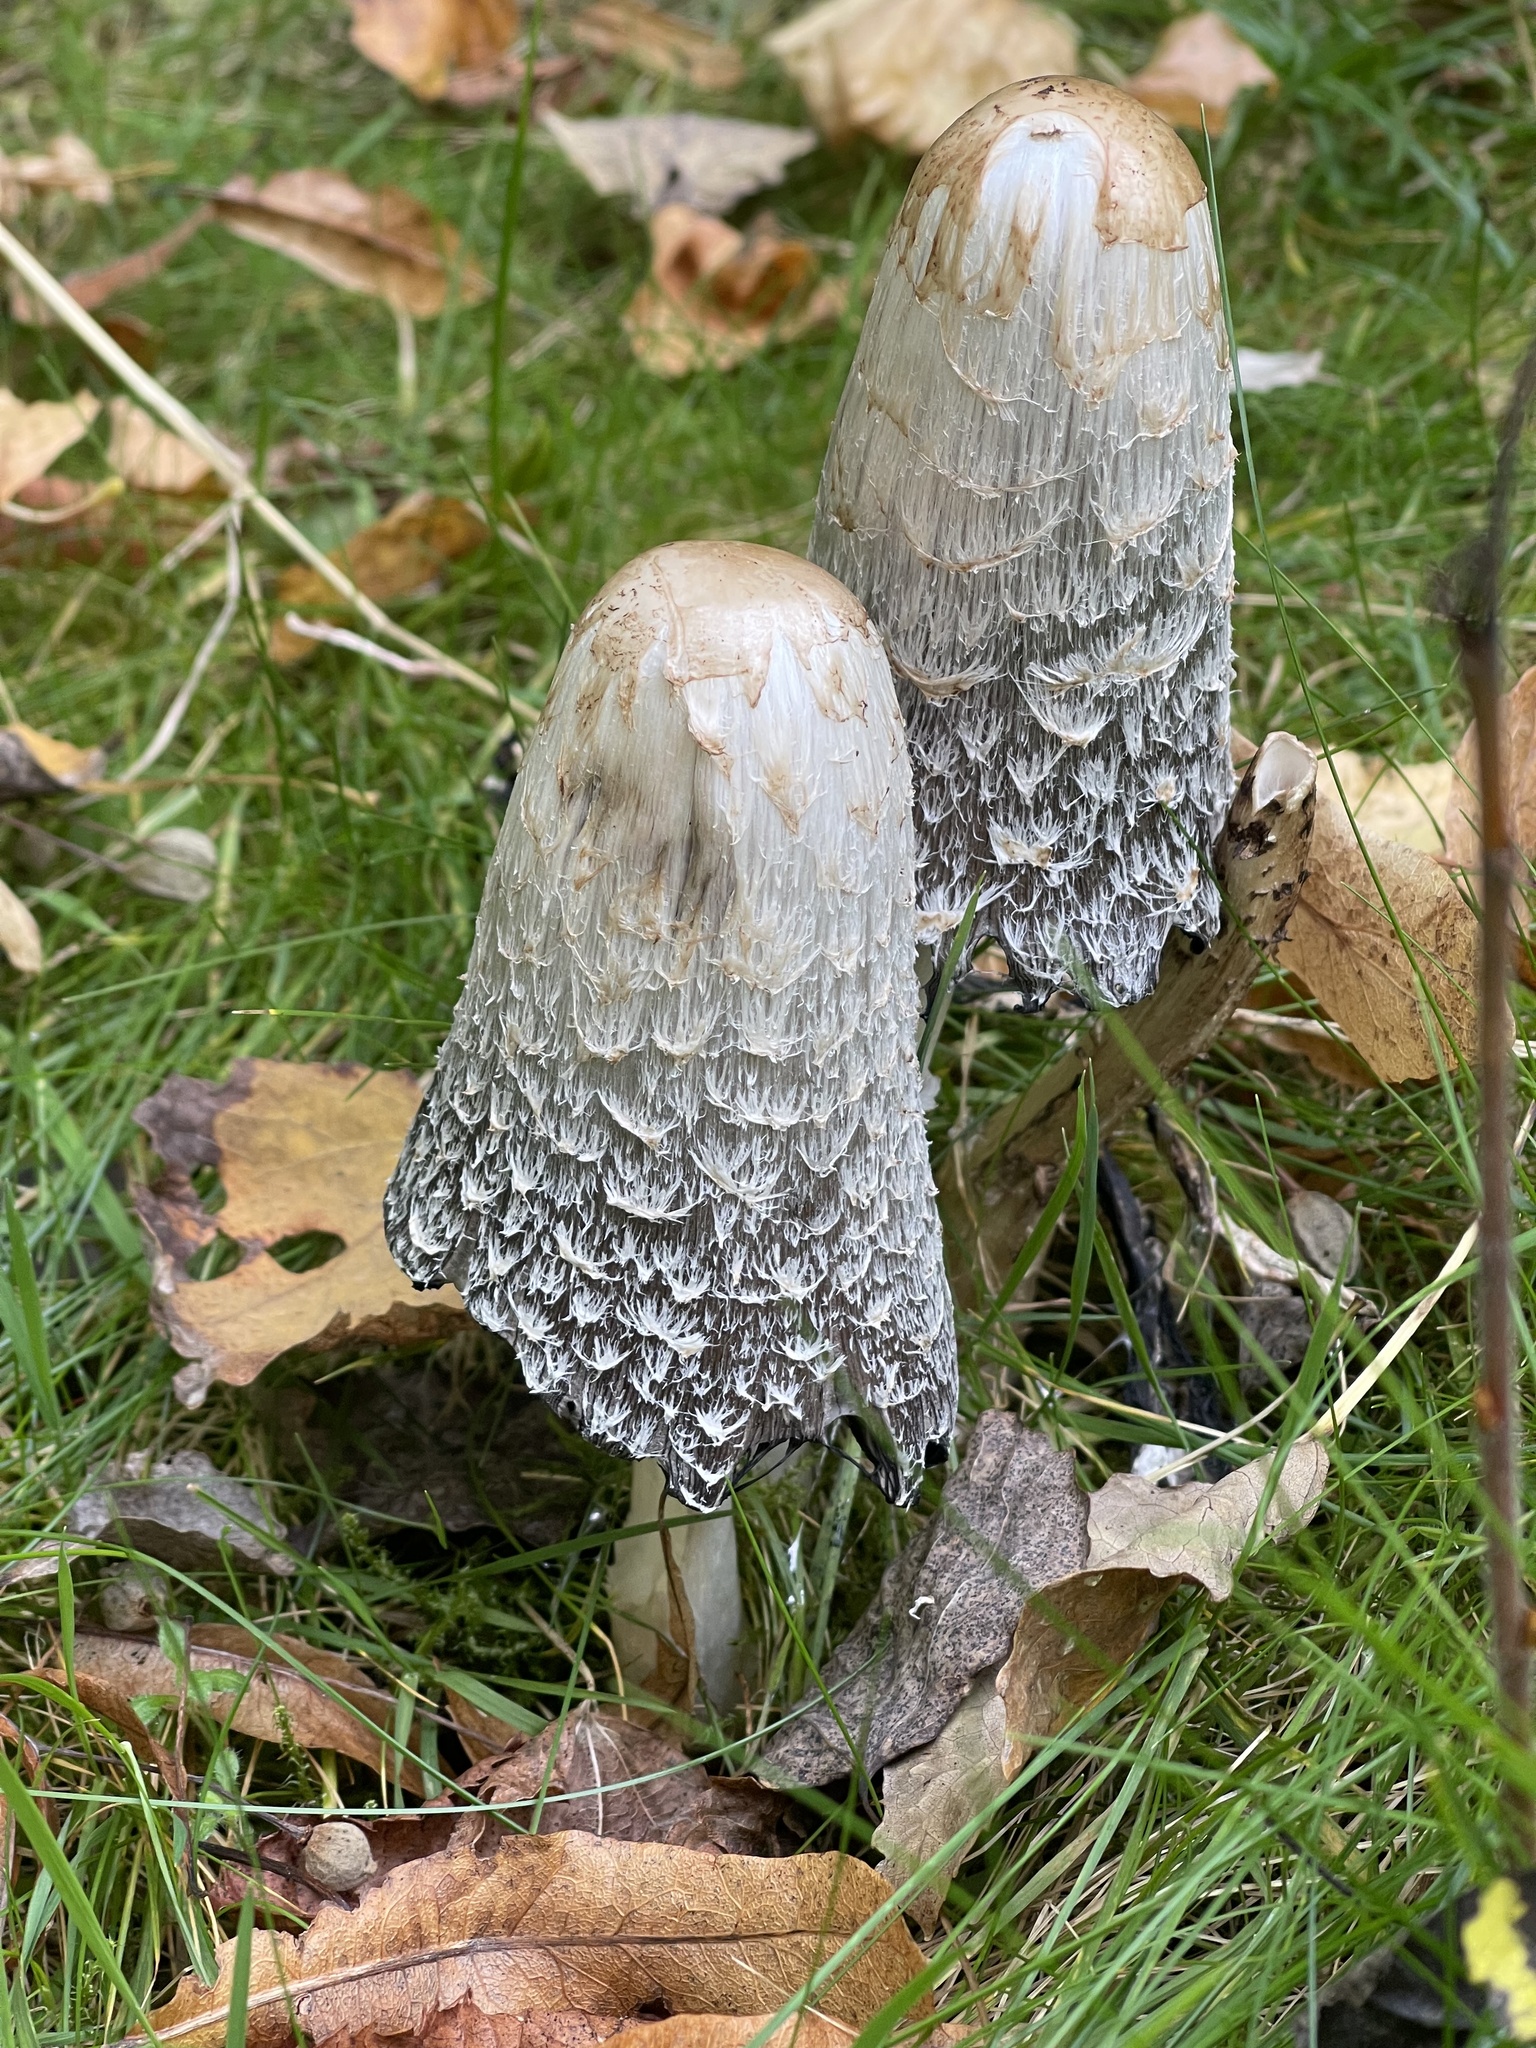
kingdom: Fungi
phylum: Basidiomycota
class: Agaricomycetes
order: Agaricales
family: Agaricaceae
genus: Coprinus
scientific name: Coprinus comatus
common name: Lawyer's wig
